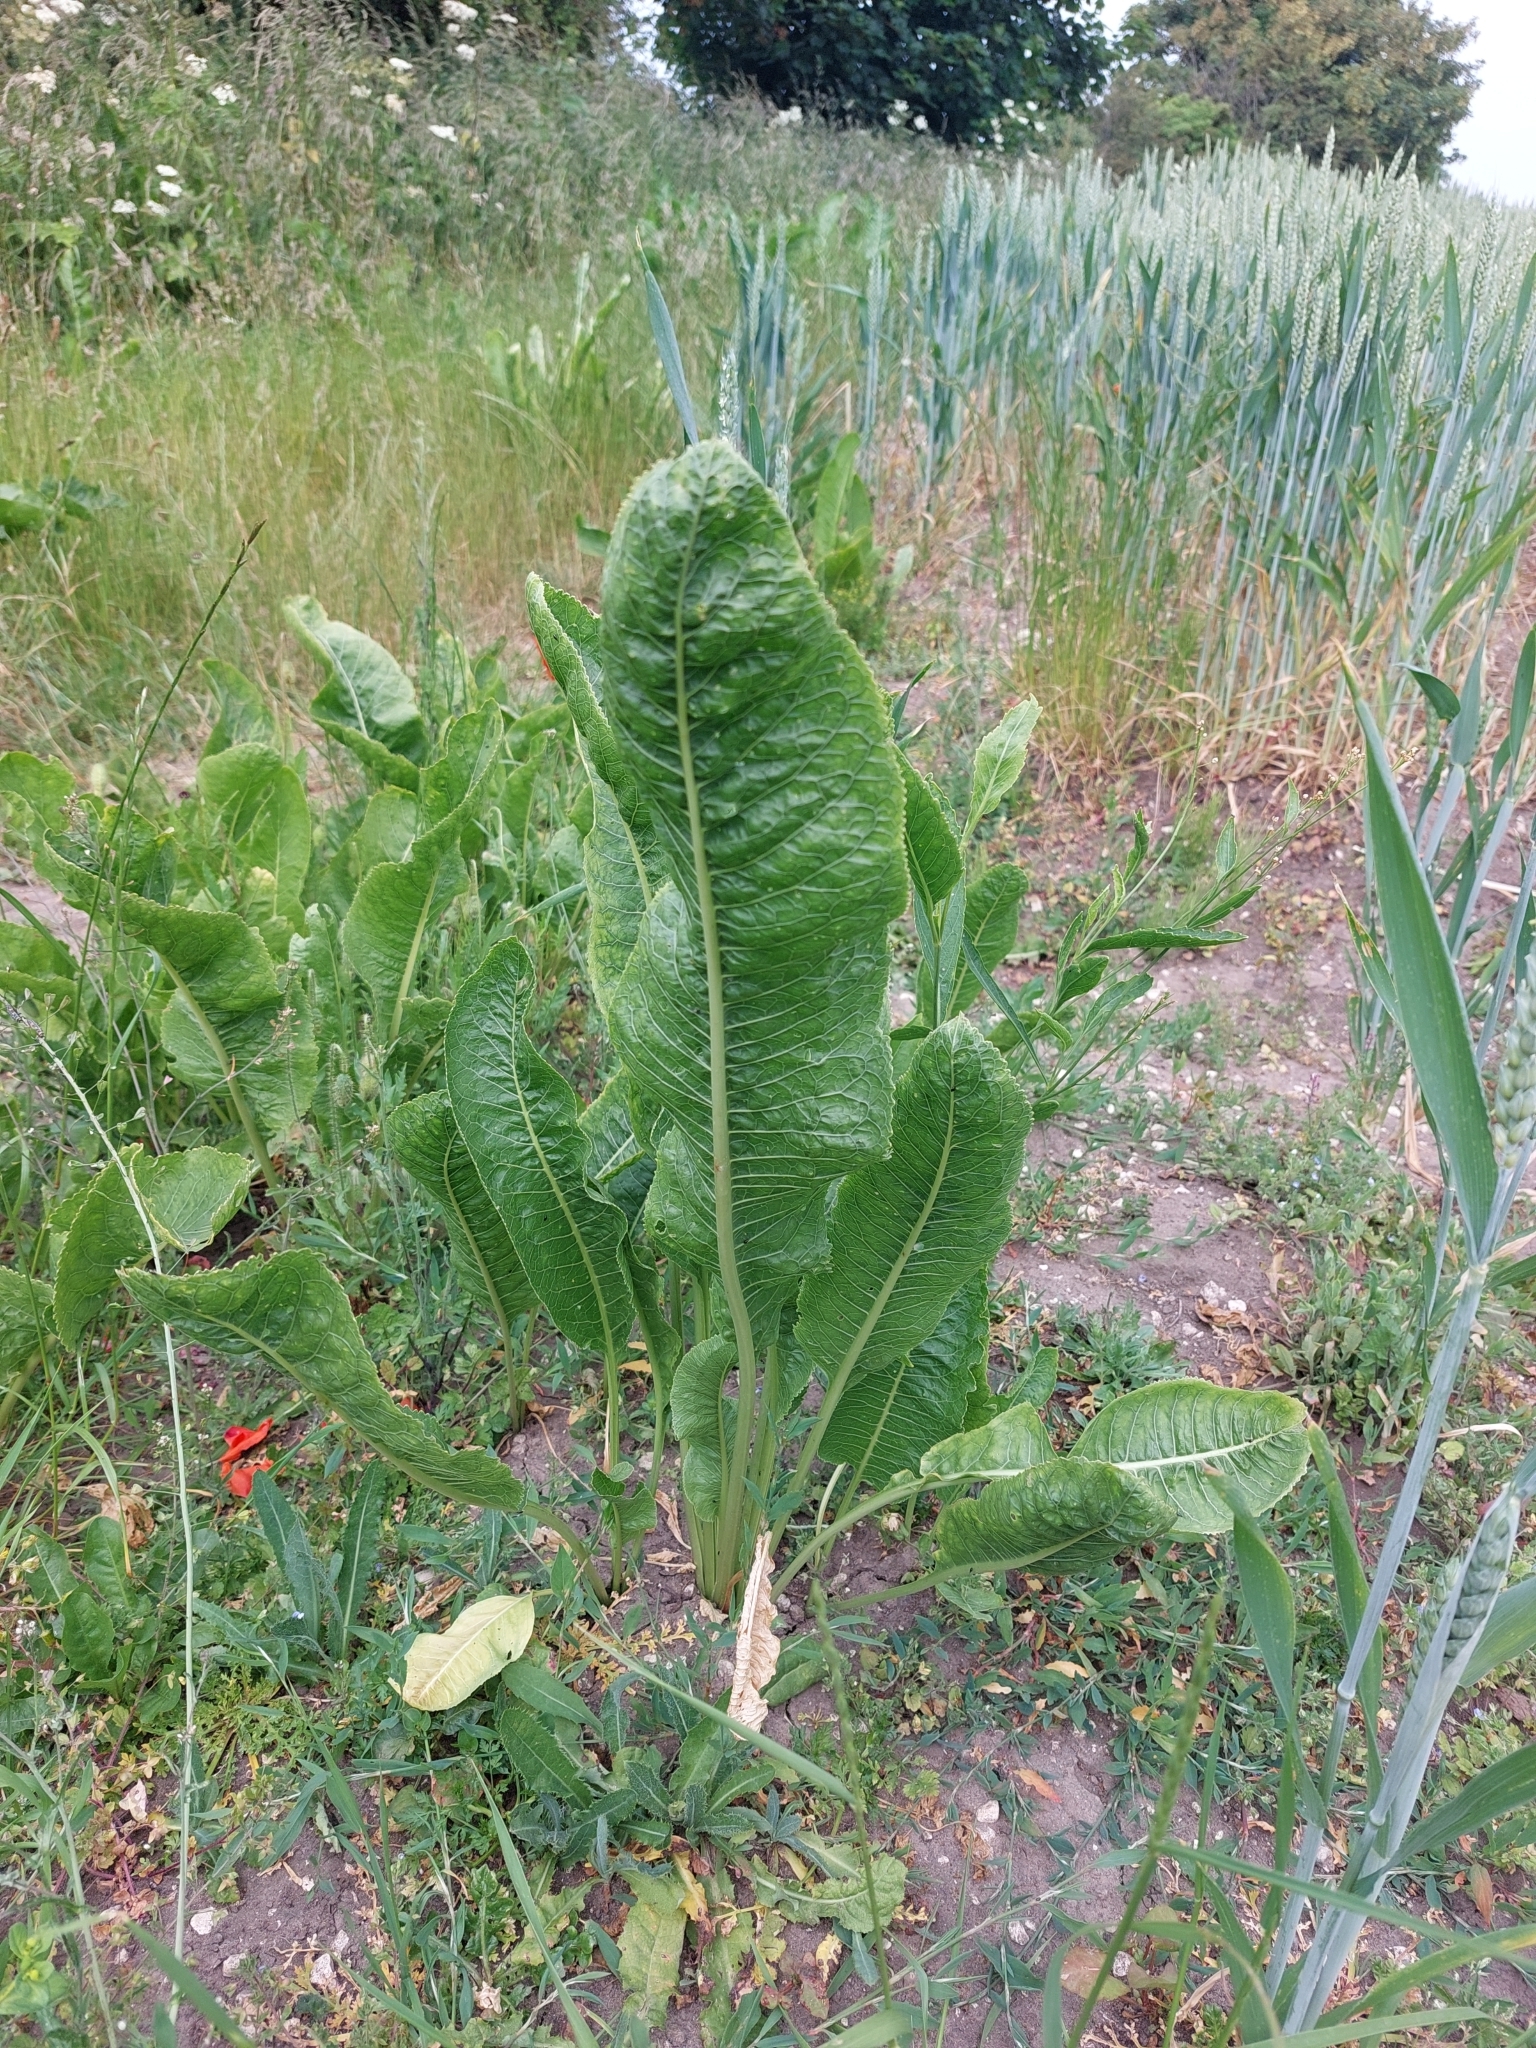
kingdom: Plantae
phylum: Tracheophyta
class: Magnoliopsida
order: Brassicales
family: Brassicaceae
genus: Armoracia
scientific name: Armoracia rusticana
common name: Horseradish
